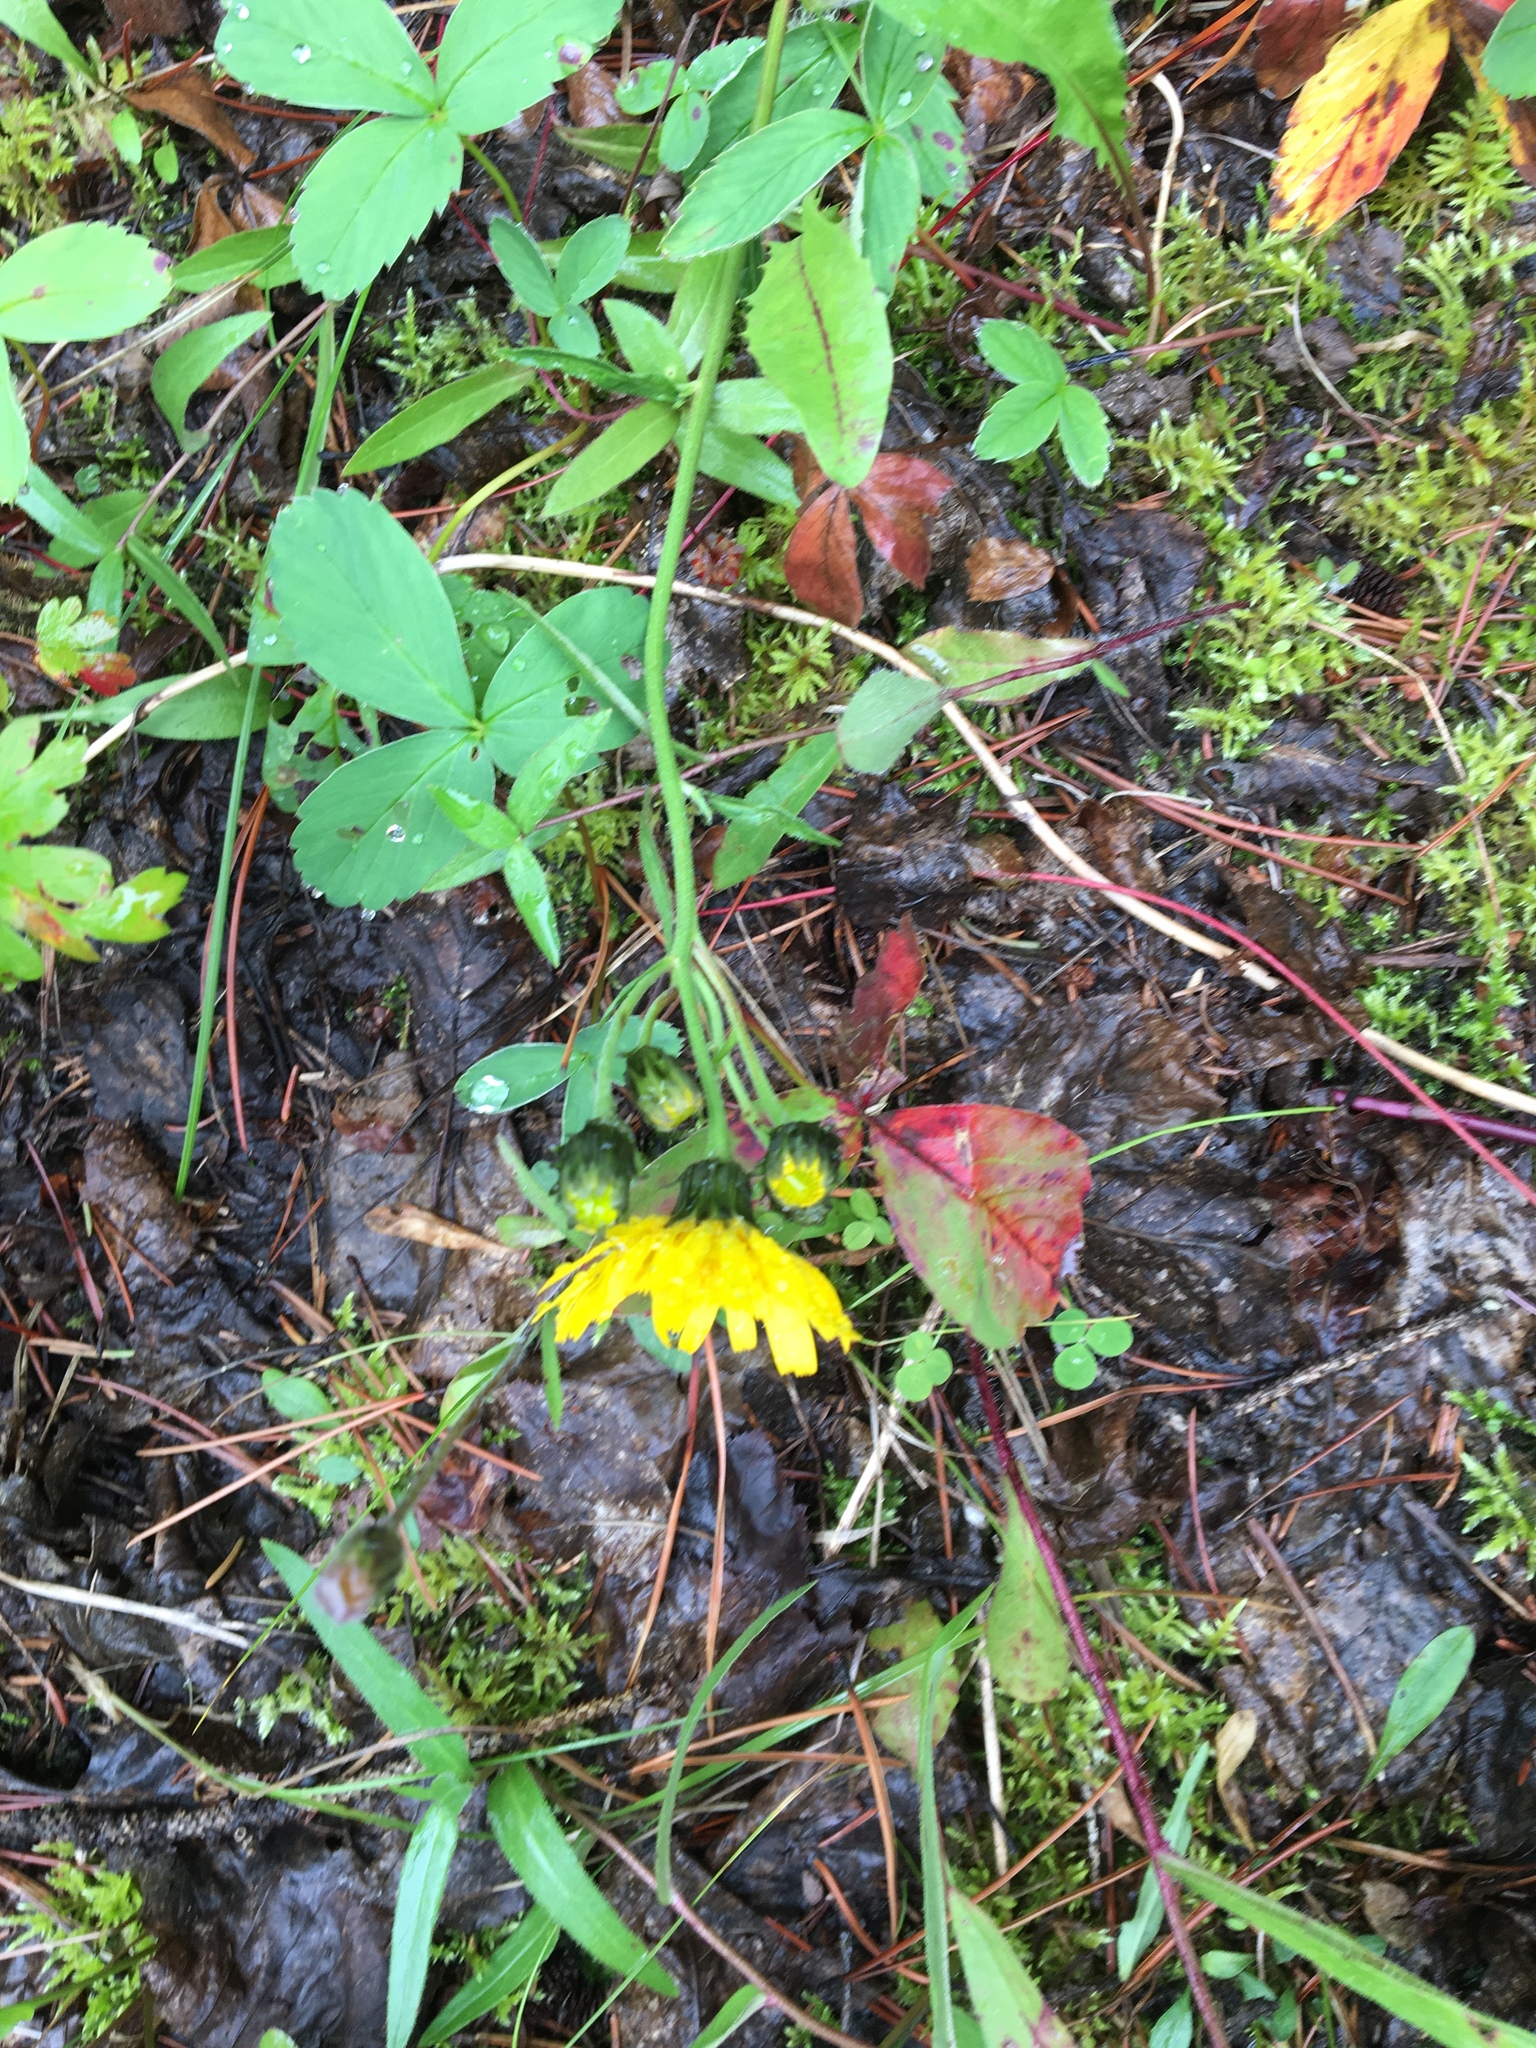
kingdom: Plantae
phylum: Tracheophyta
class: Magnoliopsida
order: Asterales
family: Asteraceae
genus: Hieracium
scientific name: Hieracium umbellatum
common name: Northern hawkweed
